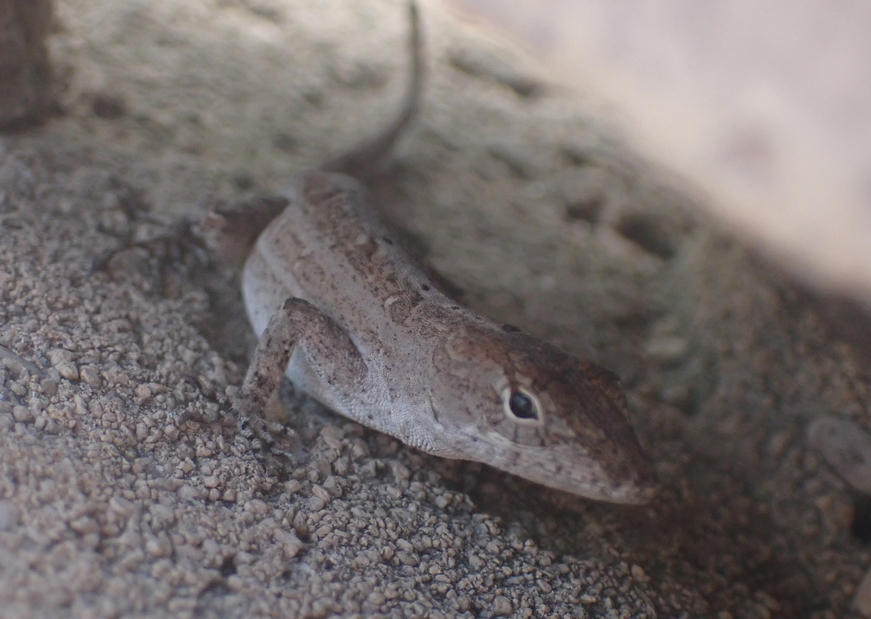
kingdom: Animalia
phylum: Chordata
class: Squamata
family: Dactyloidae
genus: Anolis
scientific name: Anolis sagrei
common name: Brown anole
